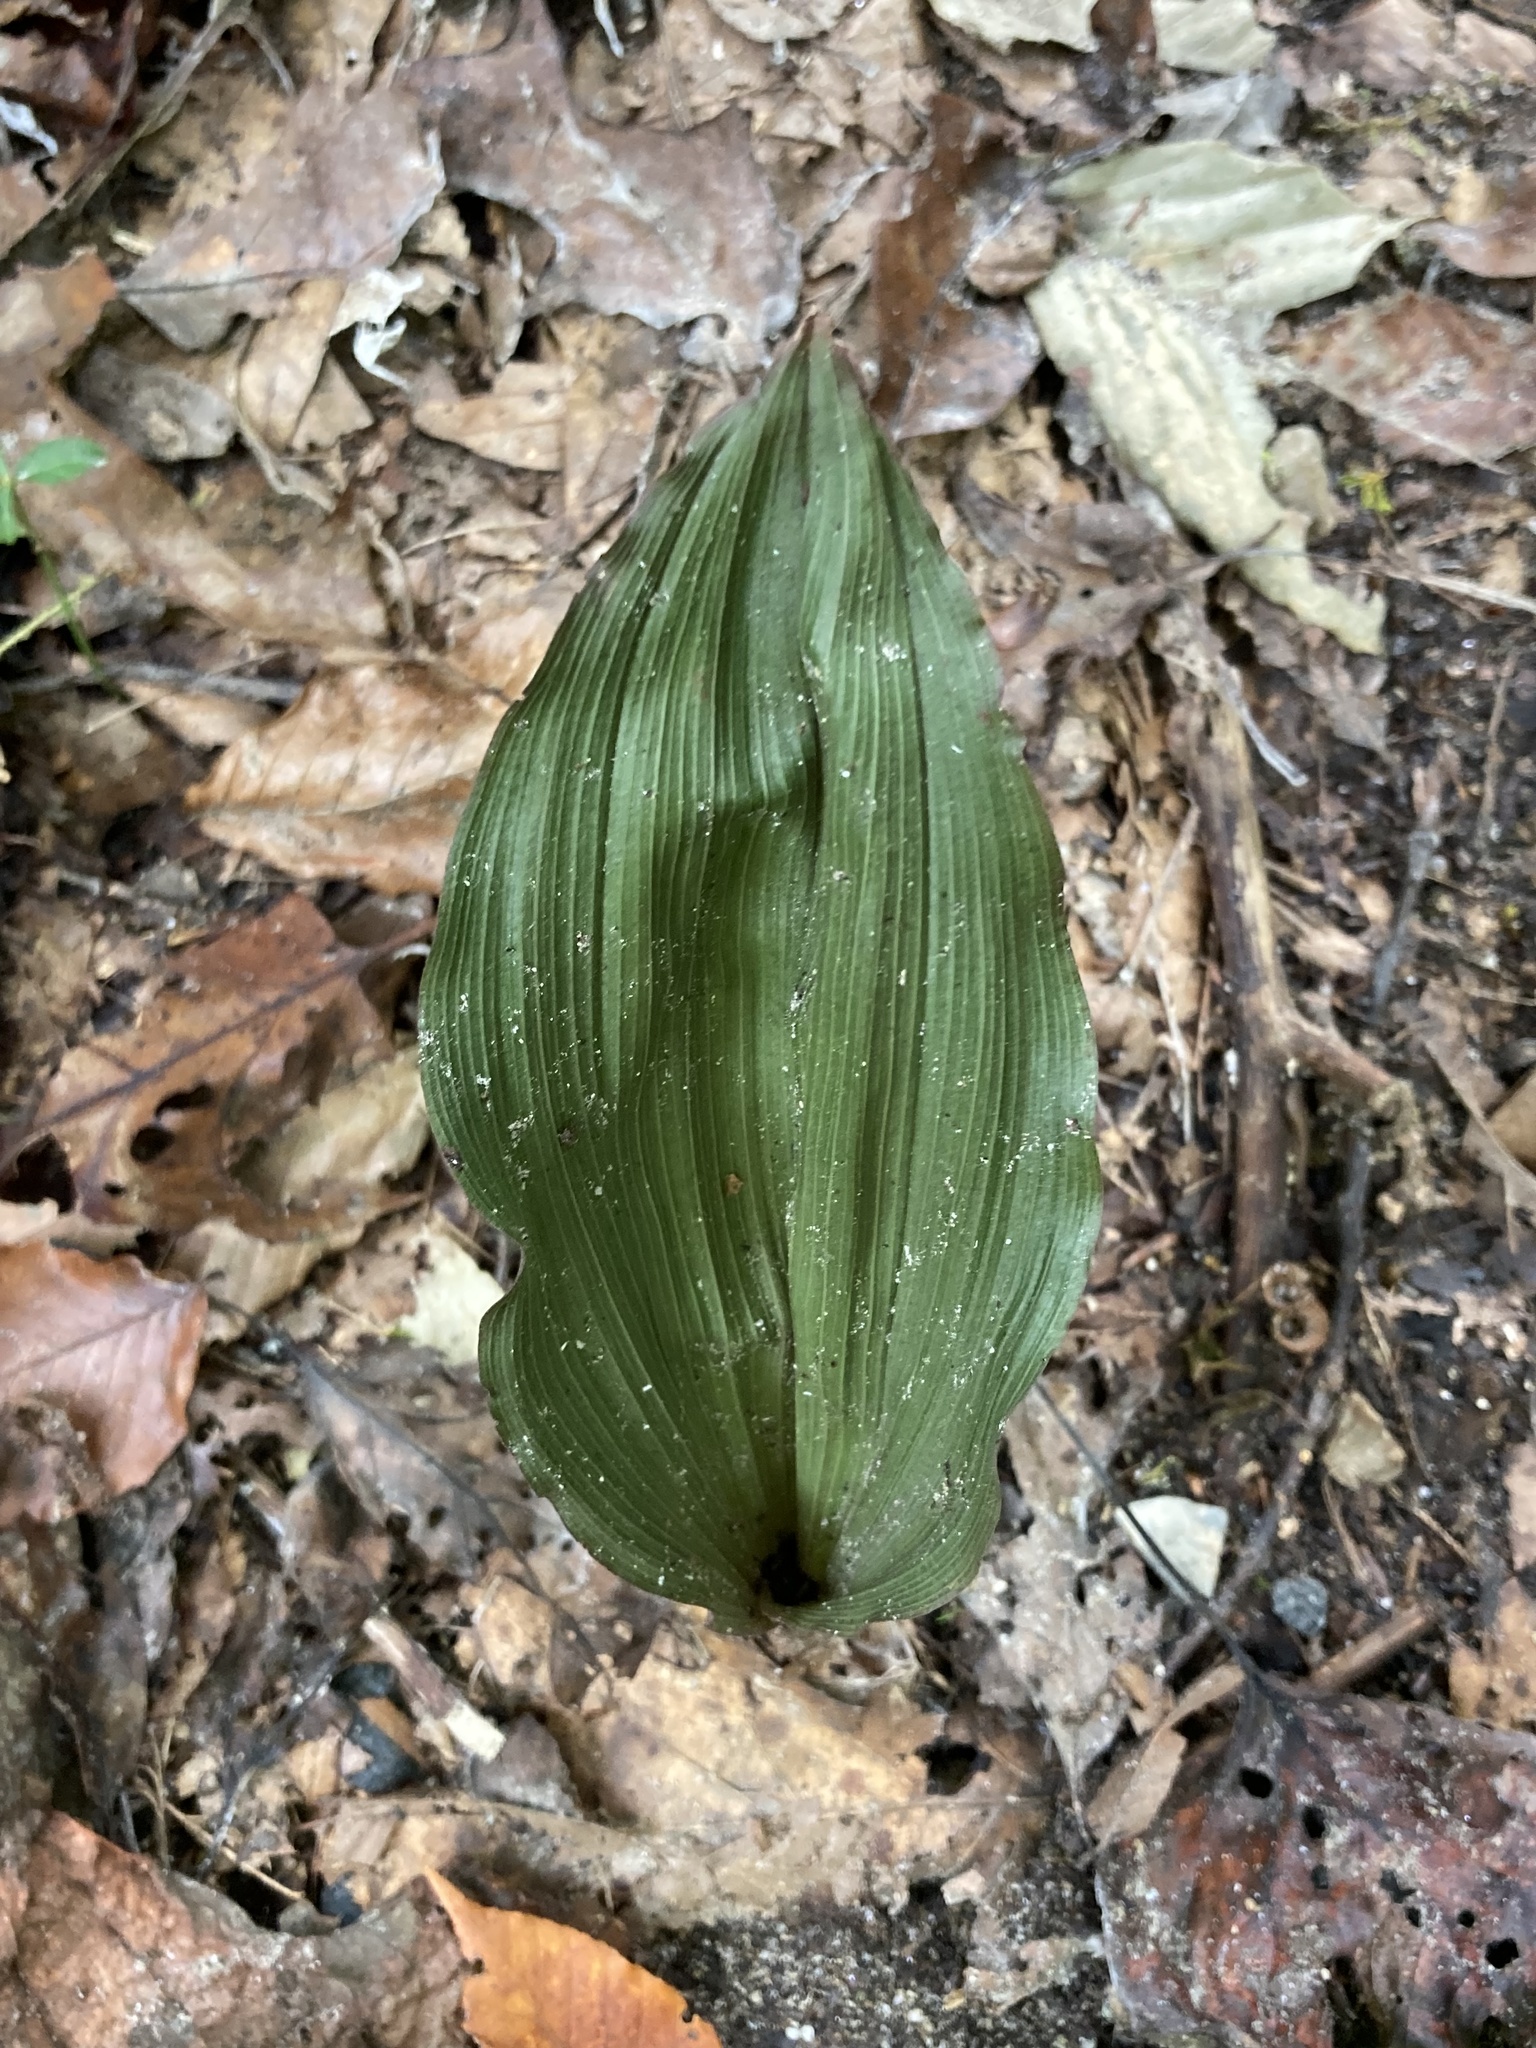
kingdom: Plantae
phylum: Tracheophyta
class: Liliopsida
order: Asparagales
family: Orchidaceae
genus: Aplectrum
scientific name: Aplectrum hyemale
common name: Adam-and-eve
